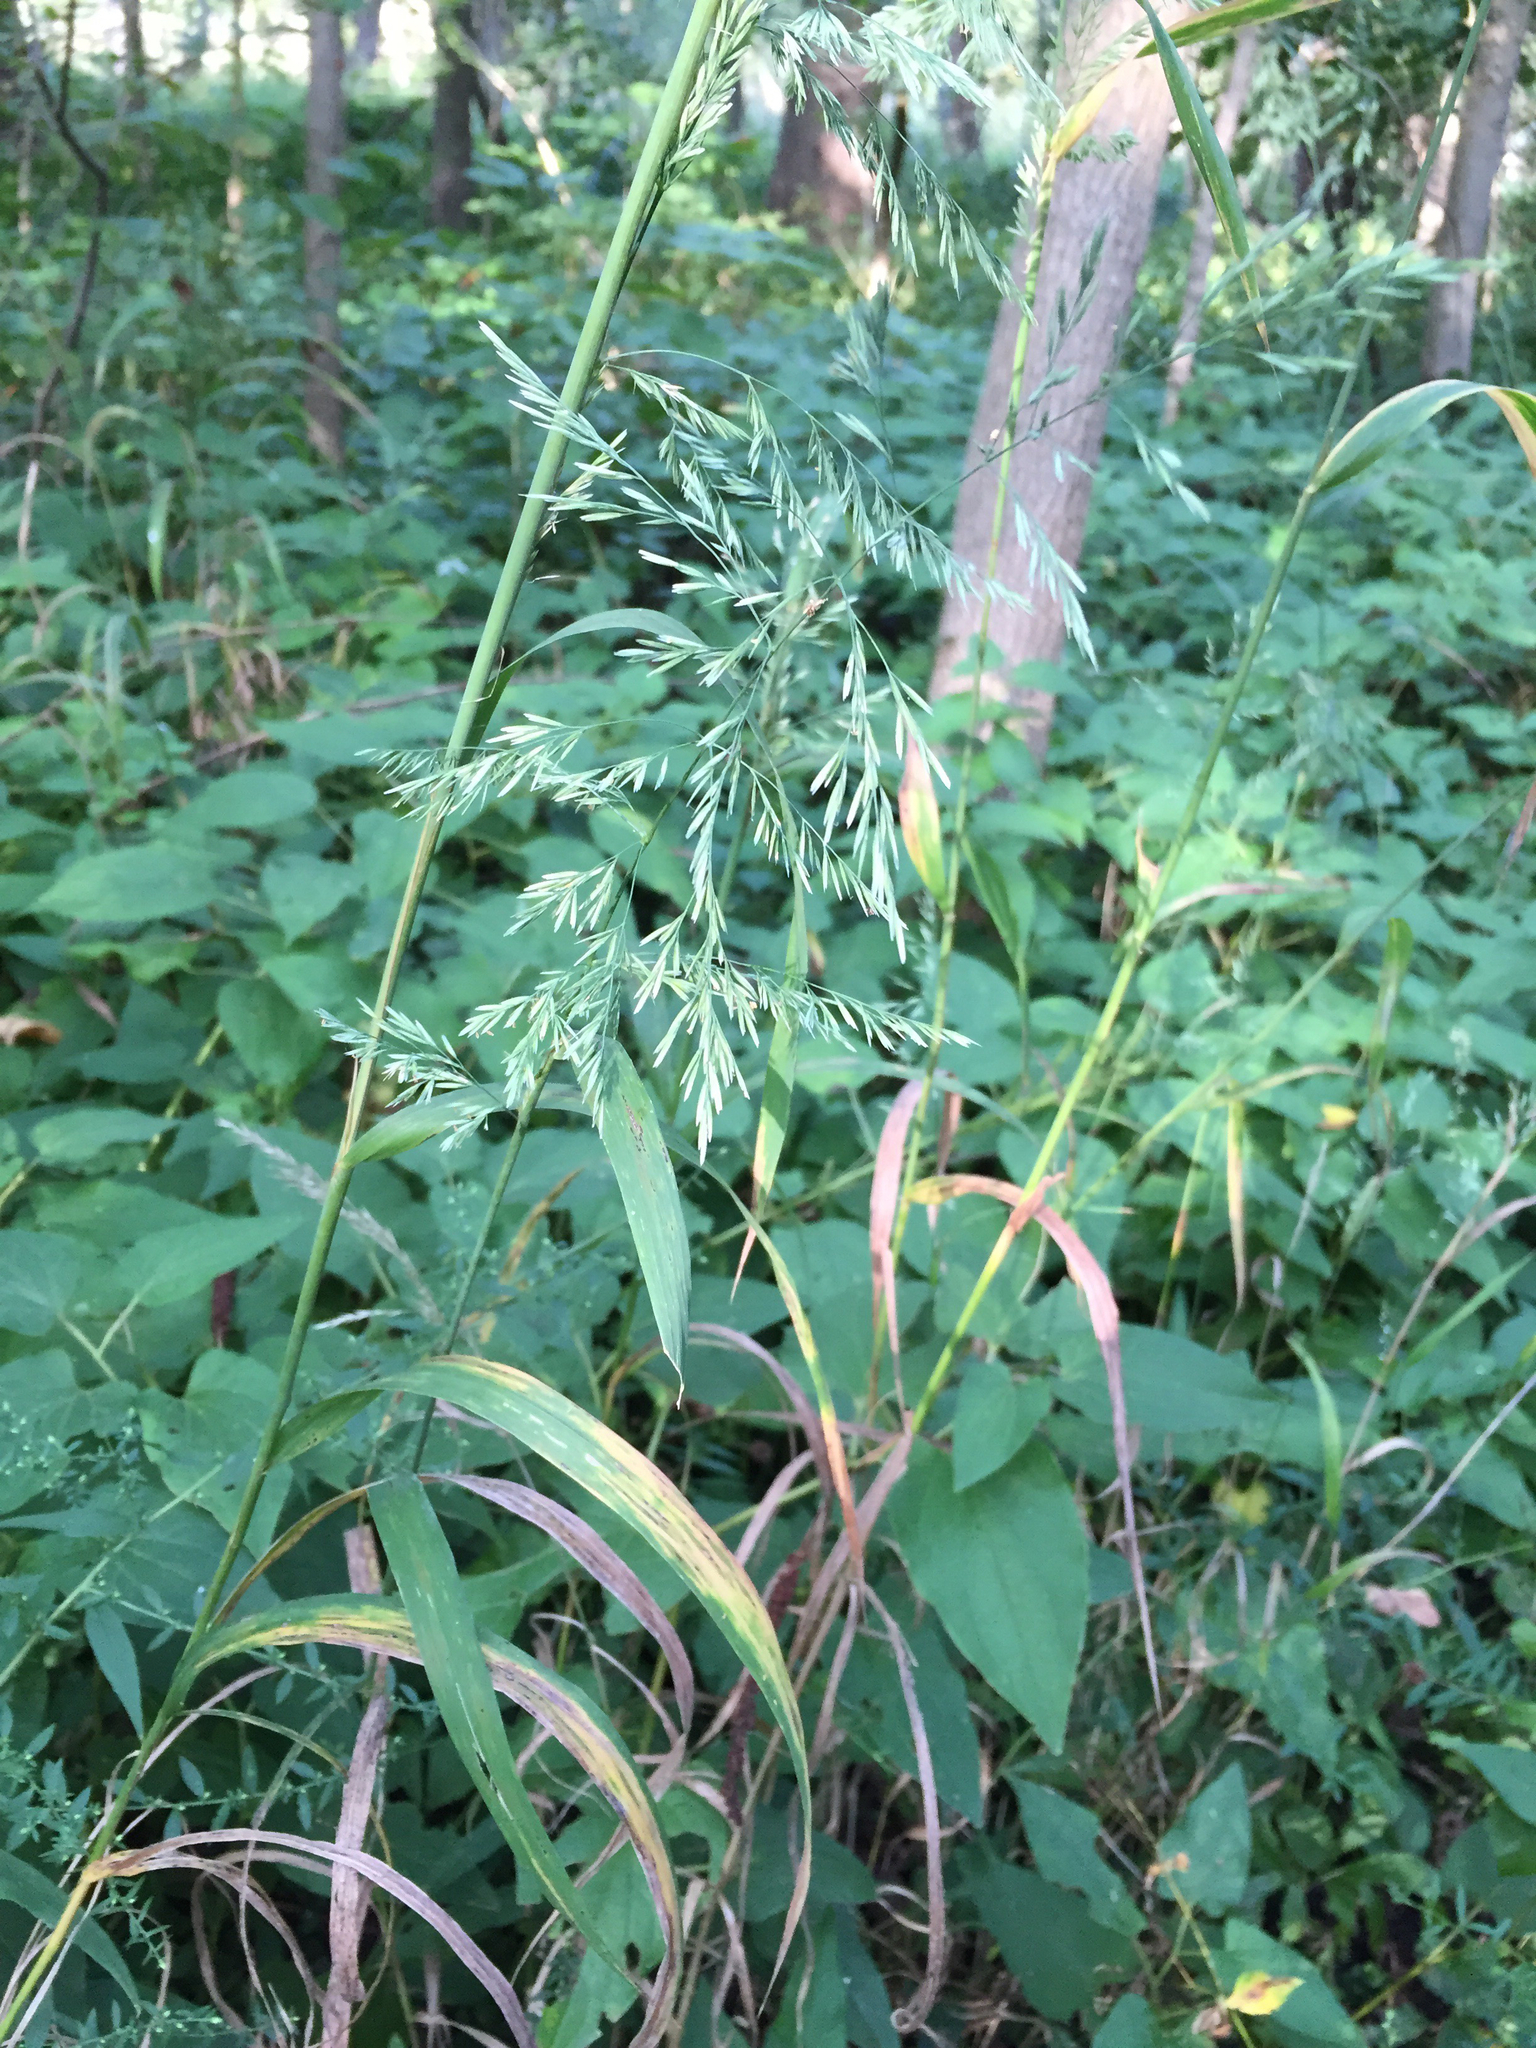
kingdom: Plantae
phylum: Tracheophyta
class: Liliopsida
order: Poales
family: Poaceae
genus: Cinna
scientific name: Cinna arundinacea
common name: Stout woodreed
